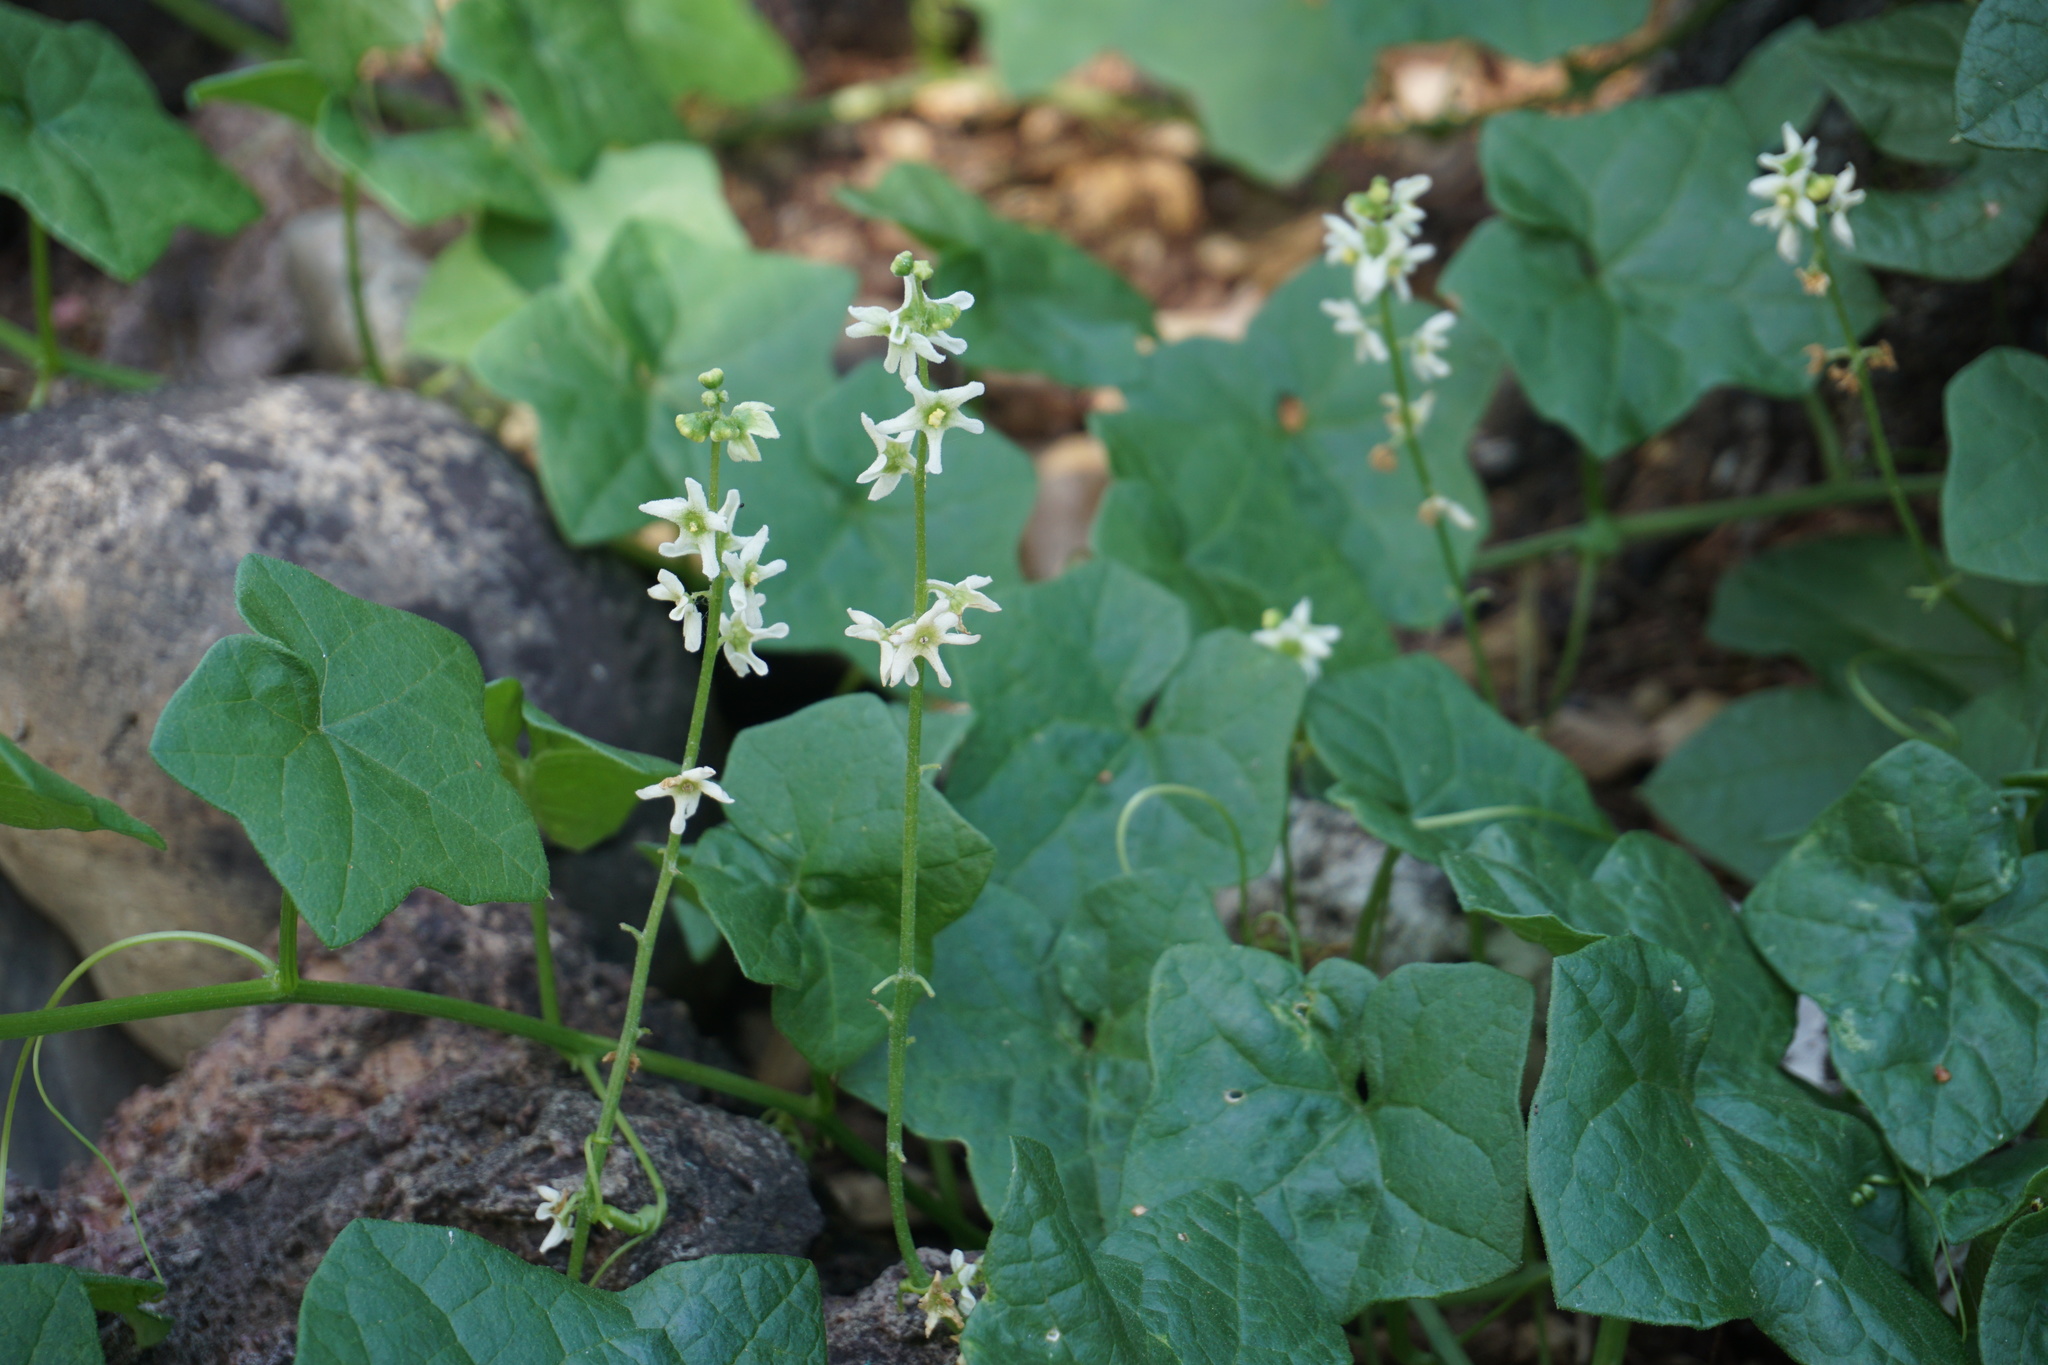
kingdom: Plantae
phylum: Tracheophyta
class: Magnoliopsida
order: Cucurbitales
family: Cucurbitaceae
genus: Marah
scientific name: Marah fabacea
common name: California manroot
